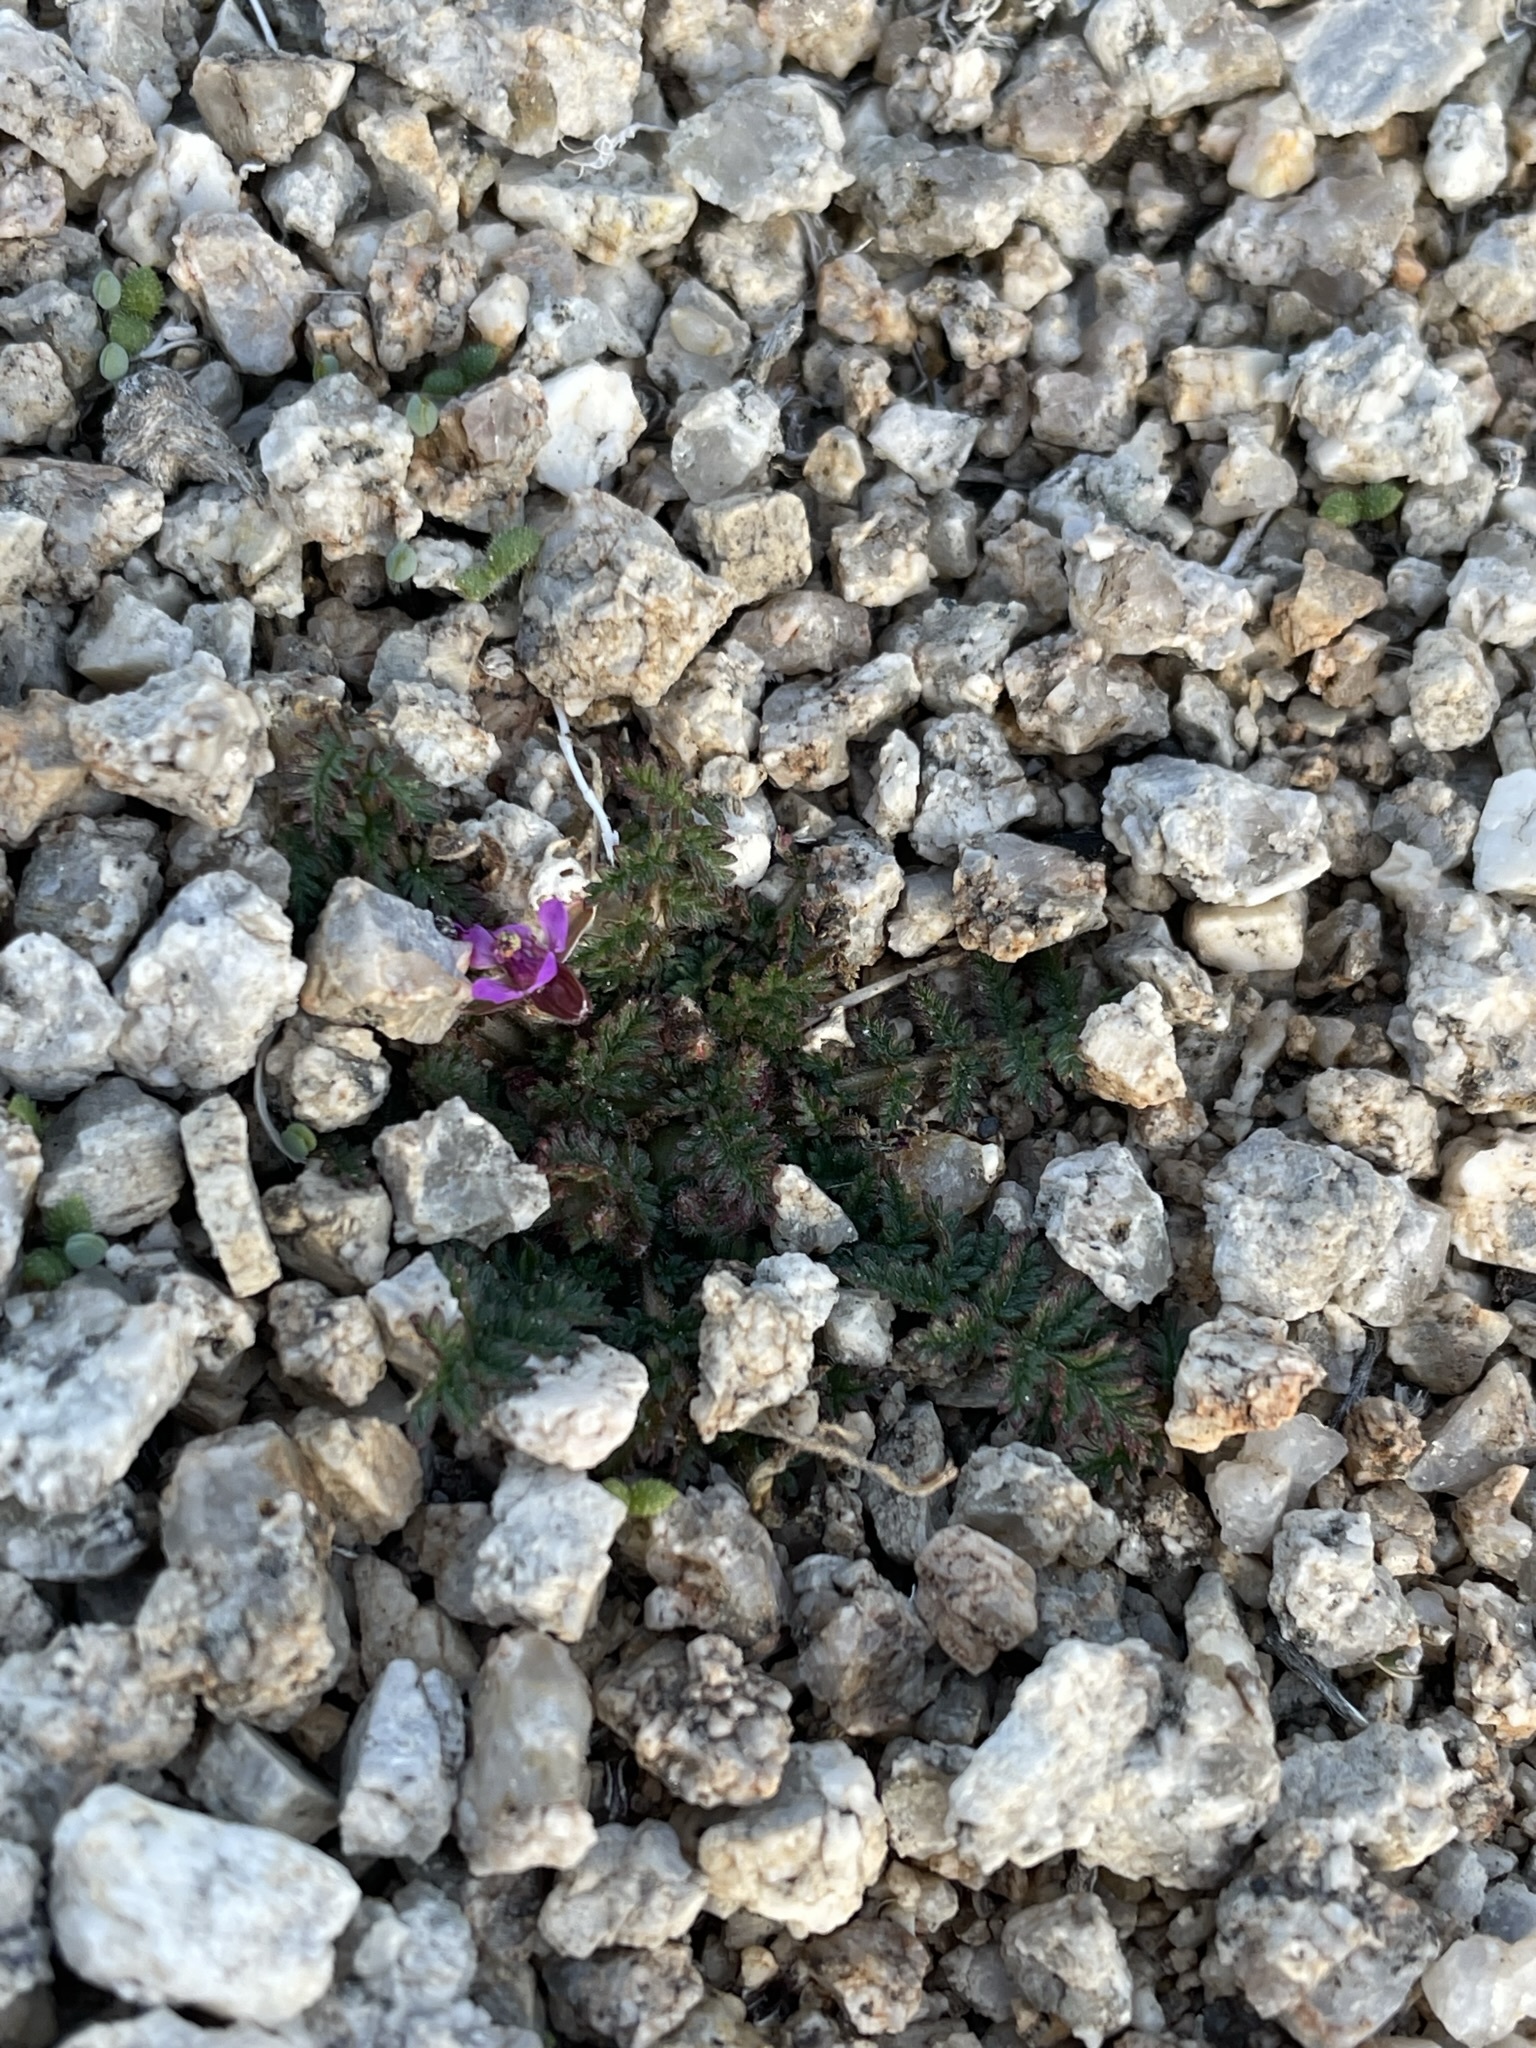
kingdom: Plantae
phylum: Tracheophyta
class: Magnoliopsida
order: Geraniales
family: Geraniaceae
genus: Erodium
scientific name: Erodium cicutarium
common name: Common stork's-bill
